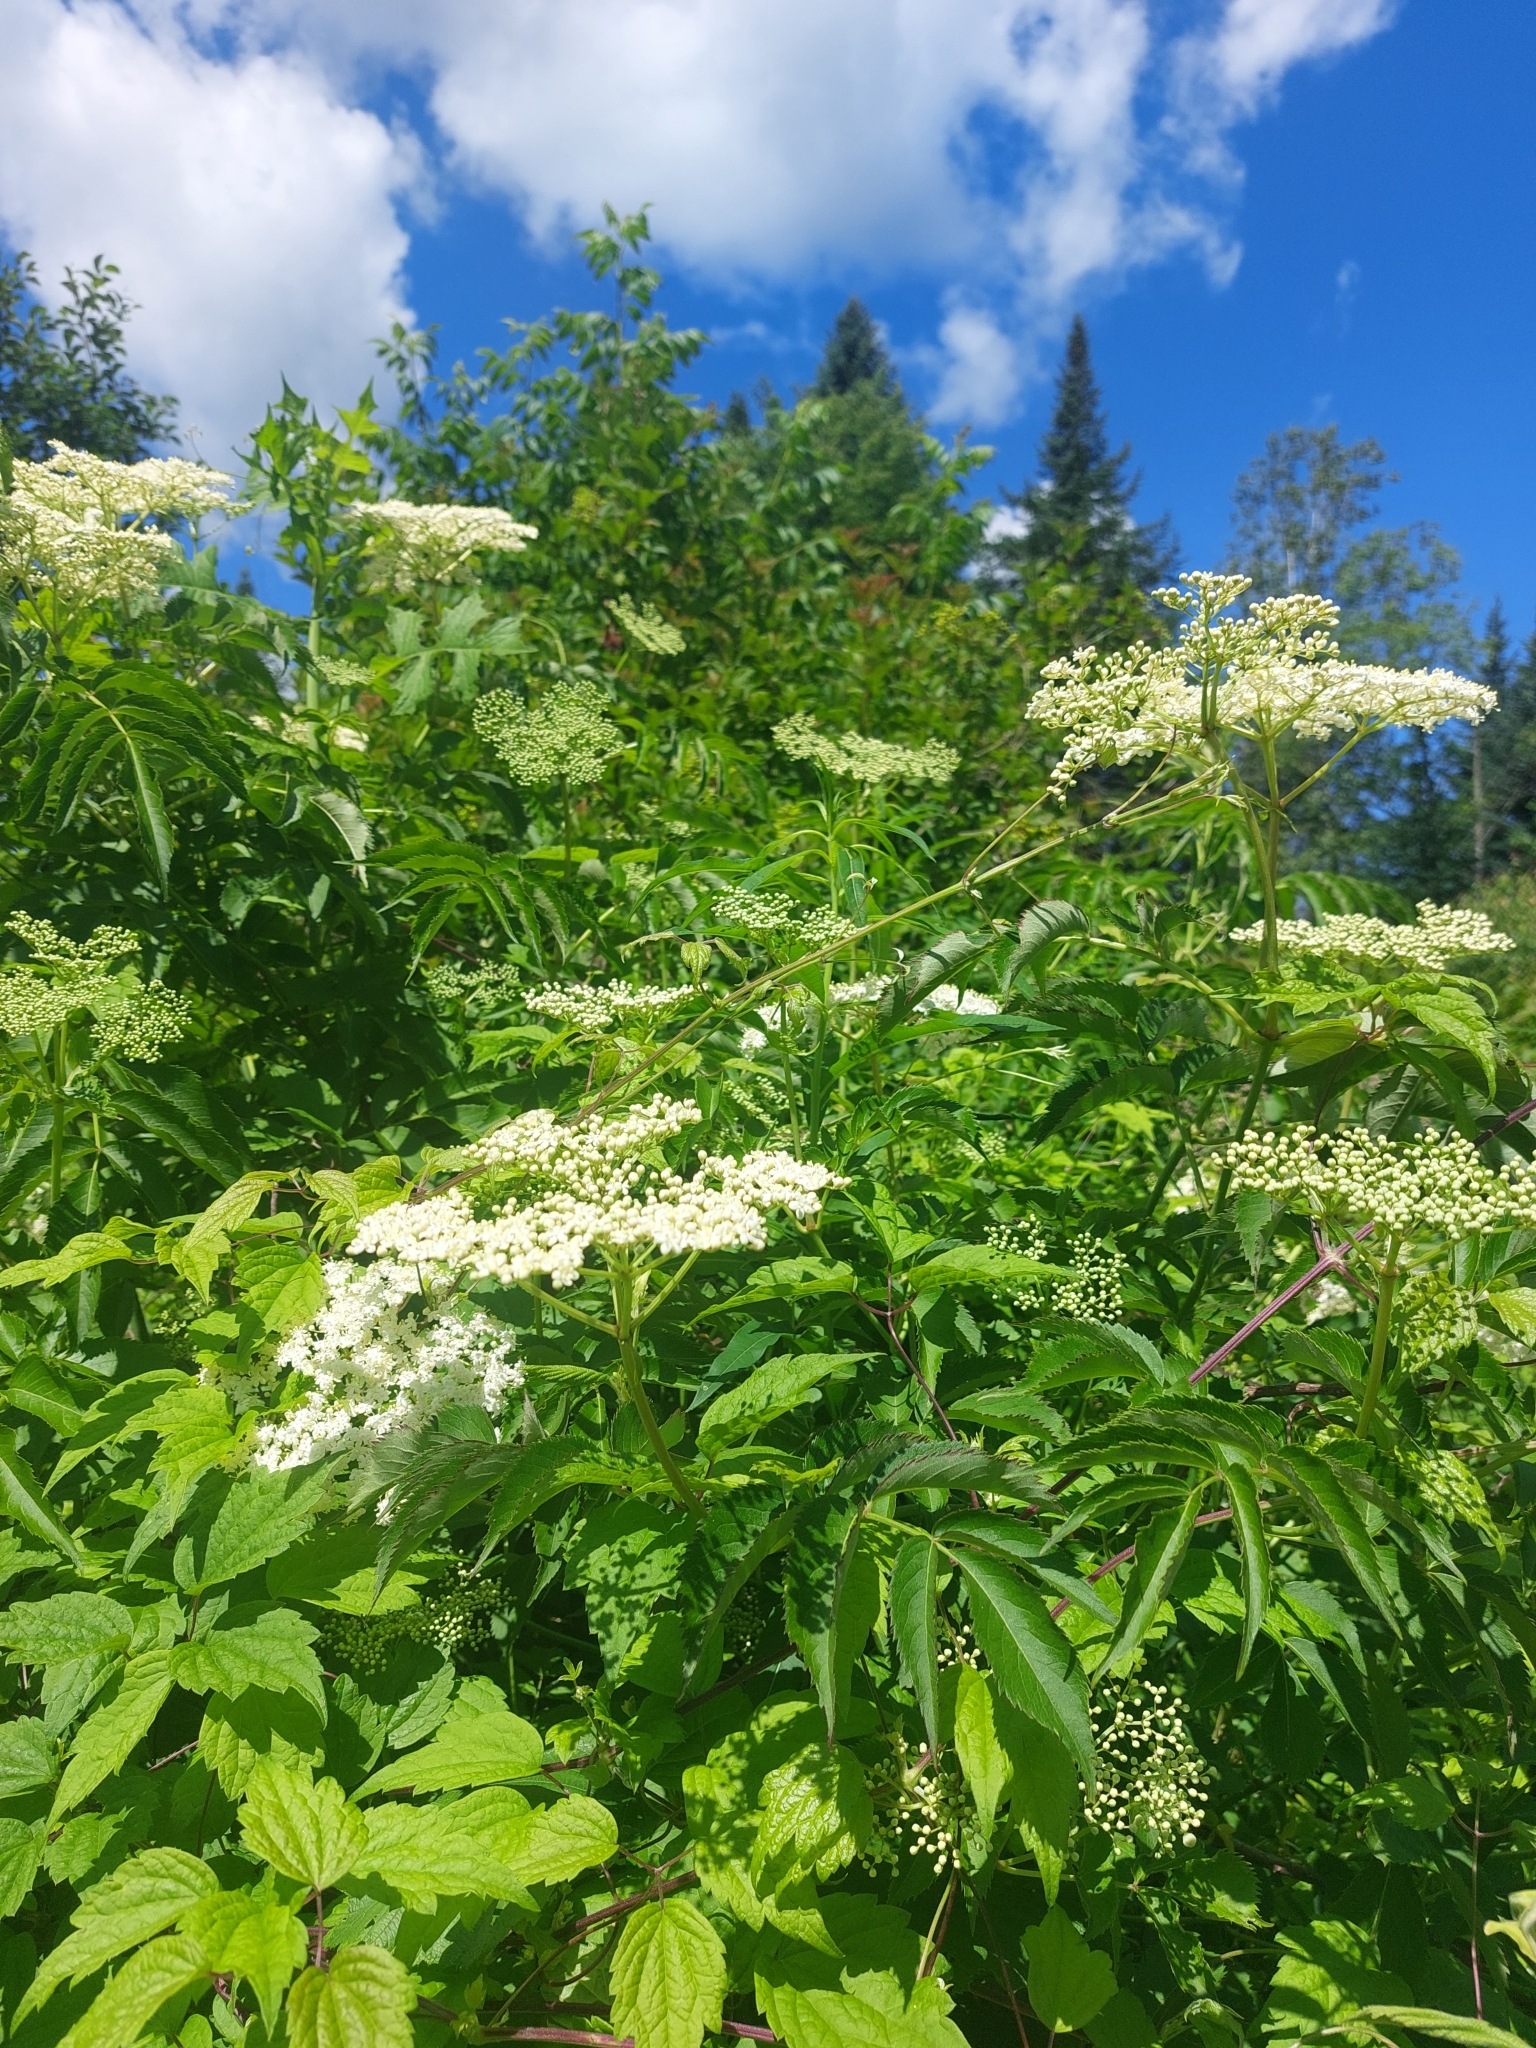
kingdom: Plantae
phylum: Tracheophyta
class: Magnoliopsida
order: Apiales
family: Apiaceae
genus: Cicuta
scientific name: Cicuta maculata
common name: Spotted cowbane
